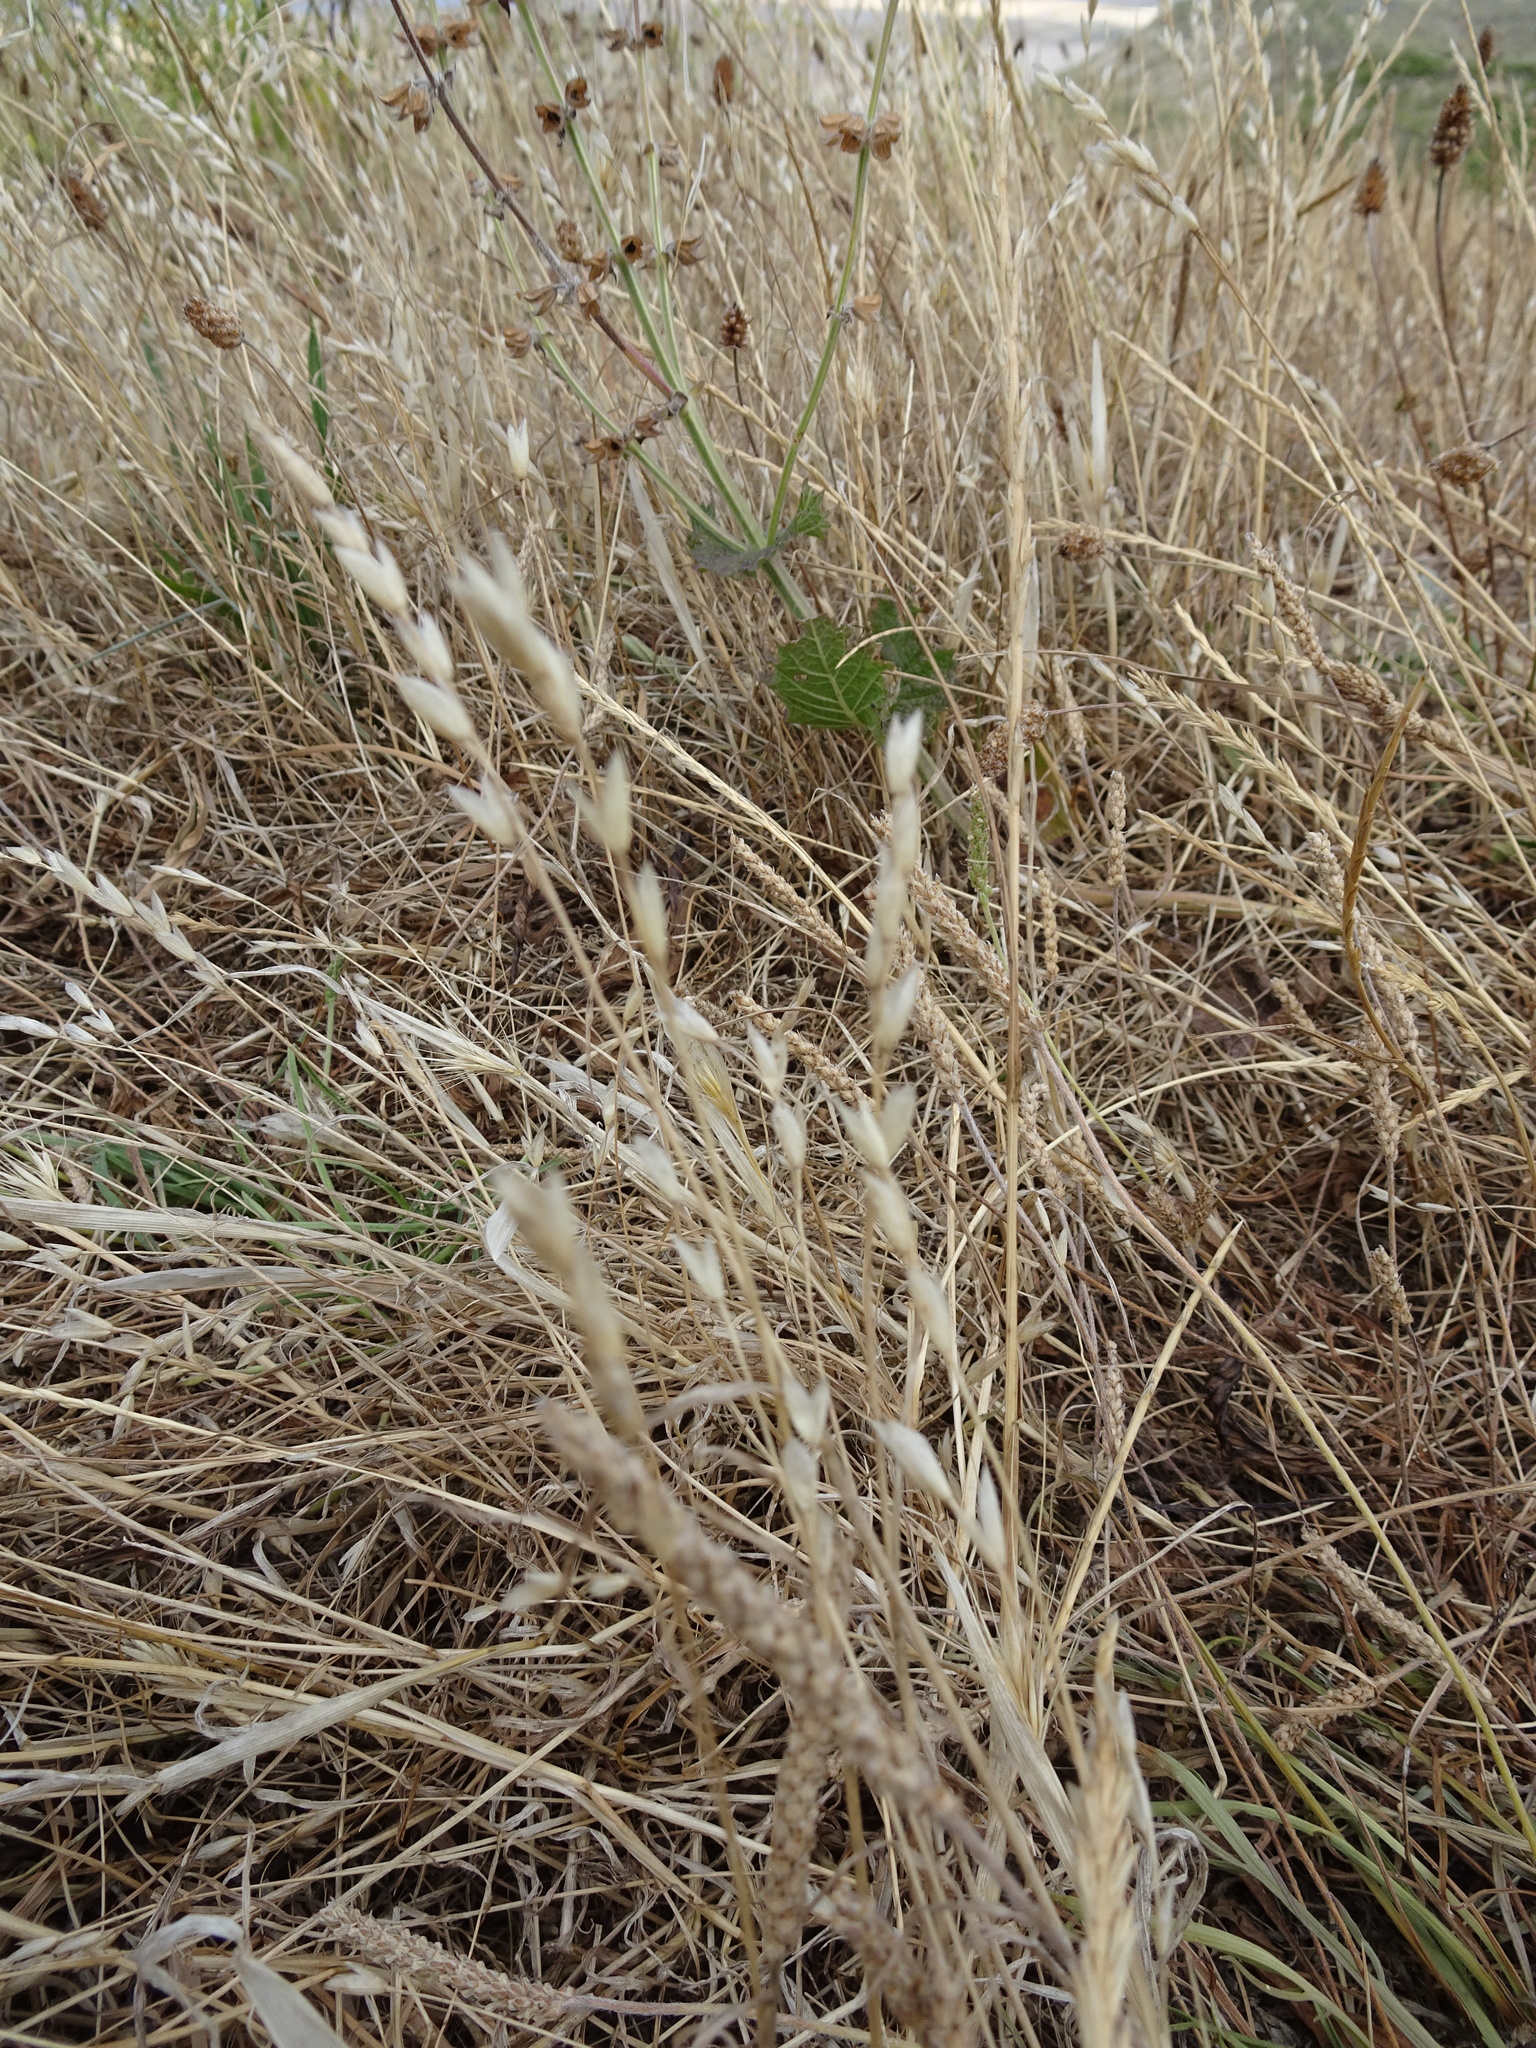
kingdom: Plantae
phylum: Tracheophyta
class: Liliopsida
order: Poales
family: Poaceae
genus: Aira
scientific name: Aira praecox
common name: Early hair-grass
